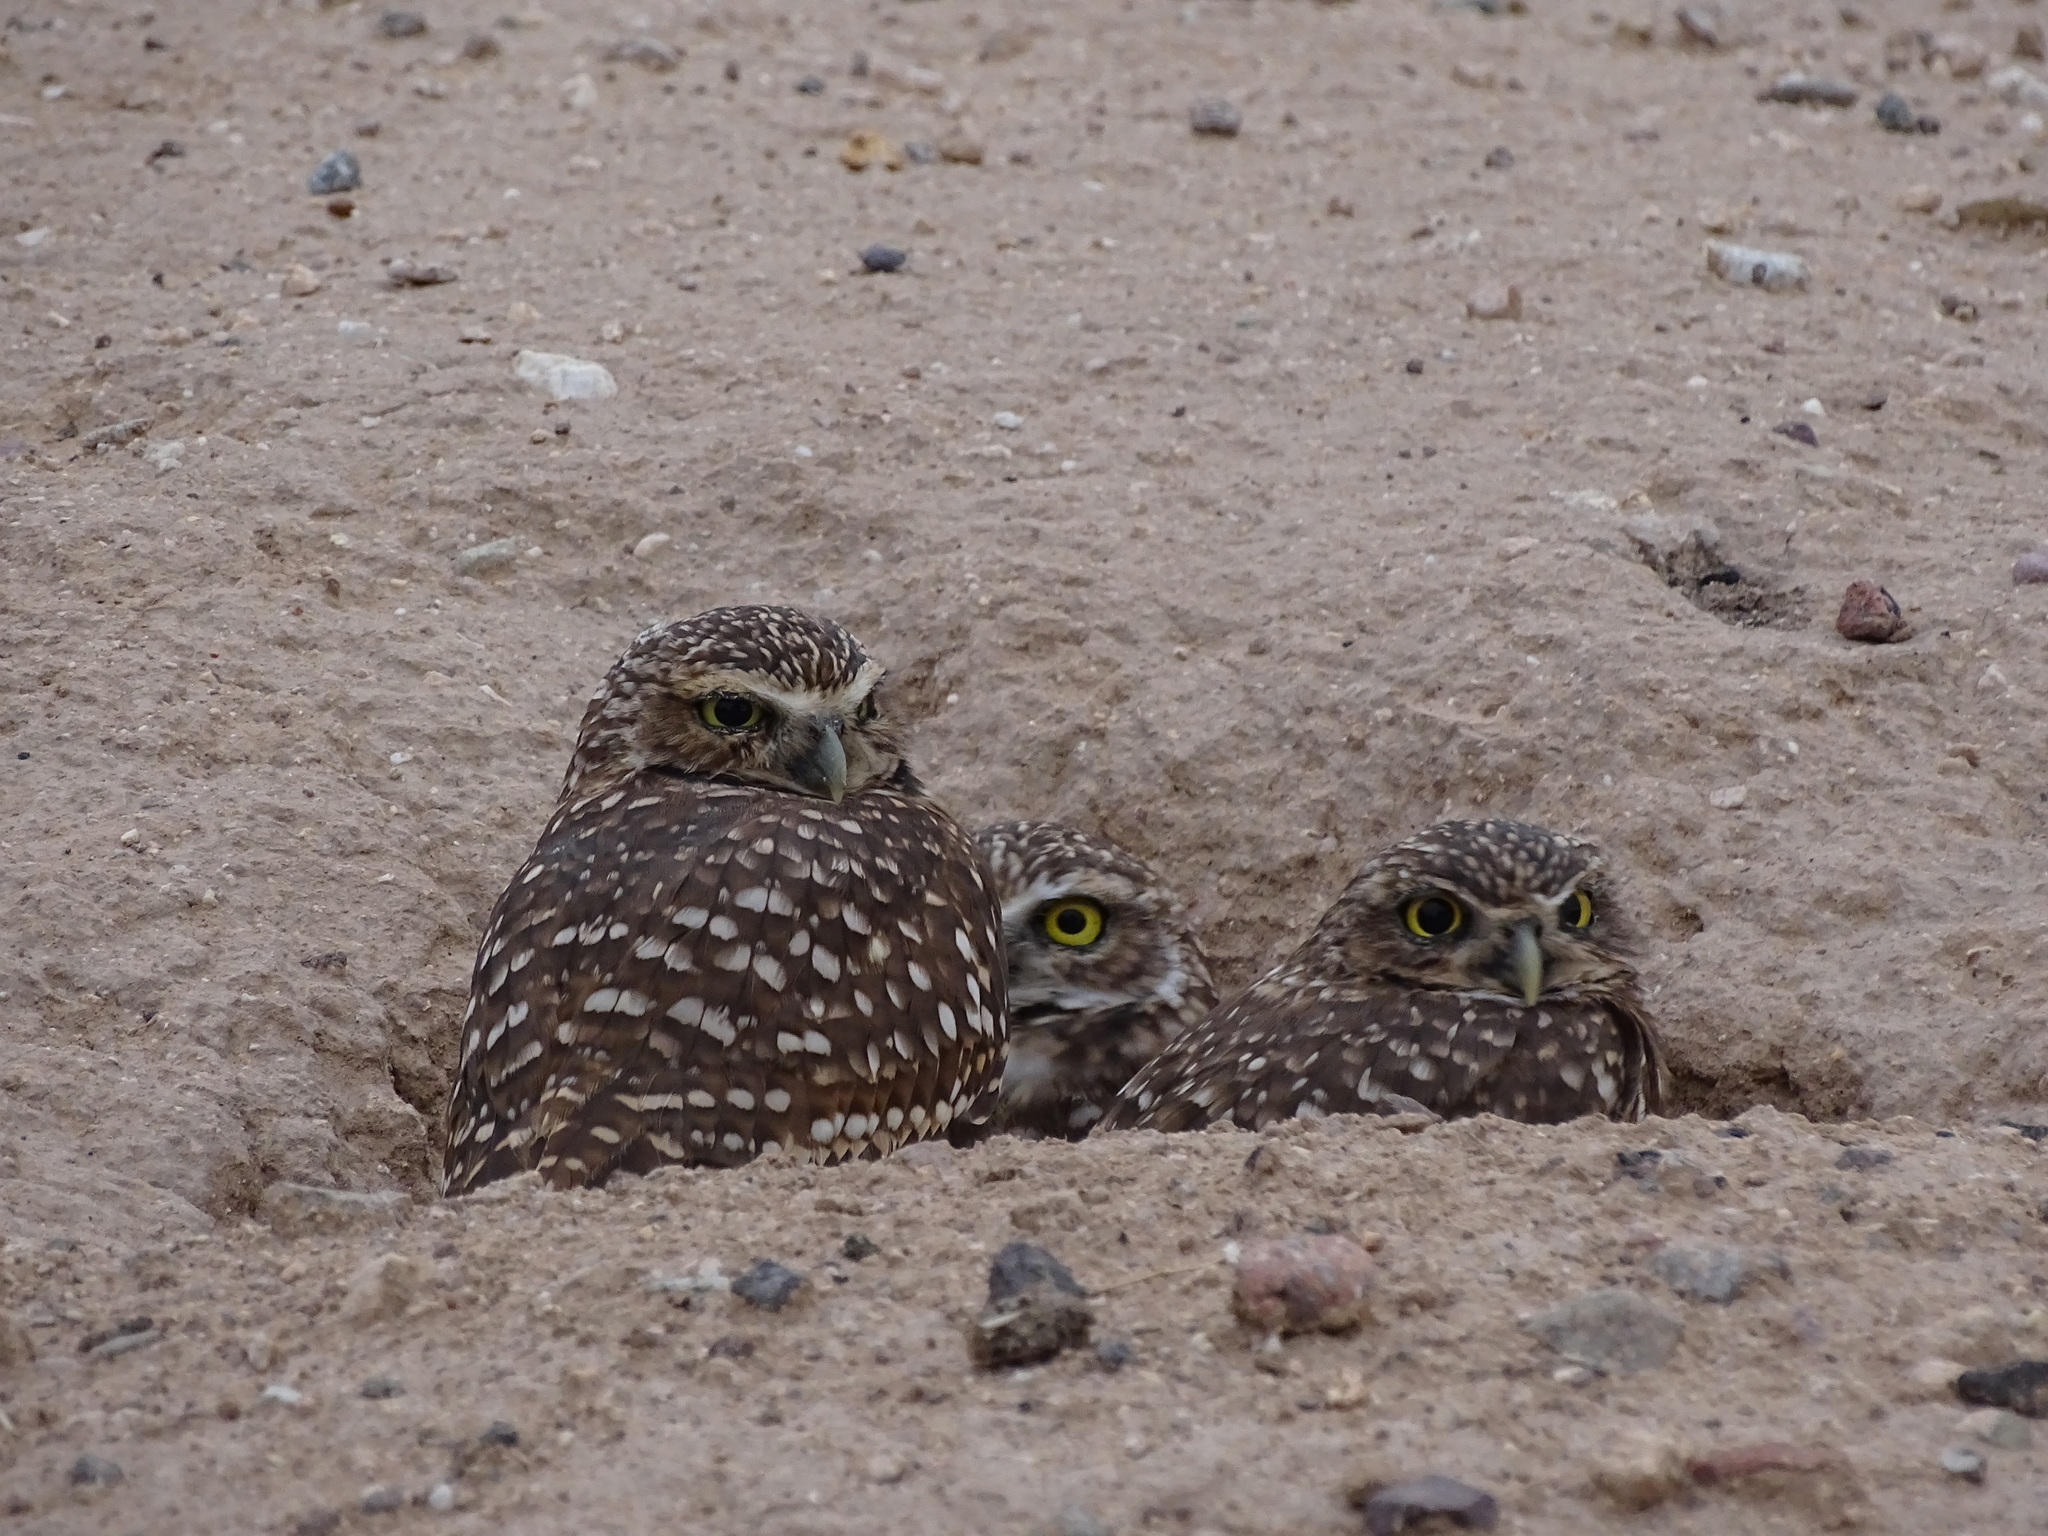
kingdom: Animalia
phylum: Chordata
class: Aves
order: Strigiformes
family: Strigidae
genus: Athene
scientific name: Athene cunicularia
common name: Burrowing owl
